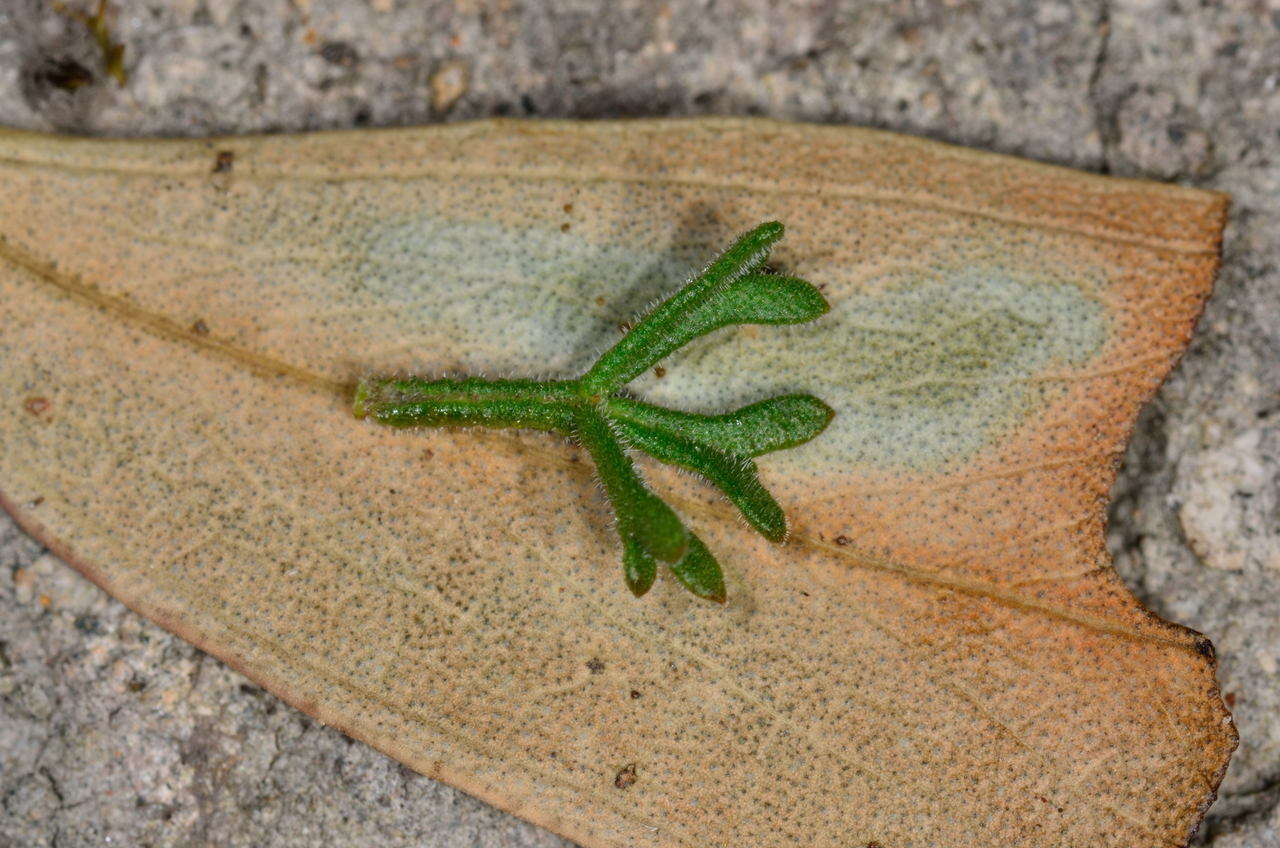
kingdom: Plantae
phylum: Tracheophyta
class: Magnoliopsida
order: Sapindales
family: Rutaceae
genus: Cyanothamnus
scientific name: Cyanothamnus anemonifolius
